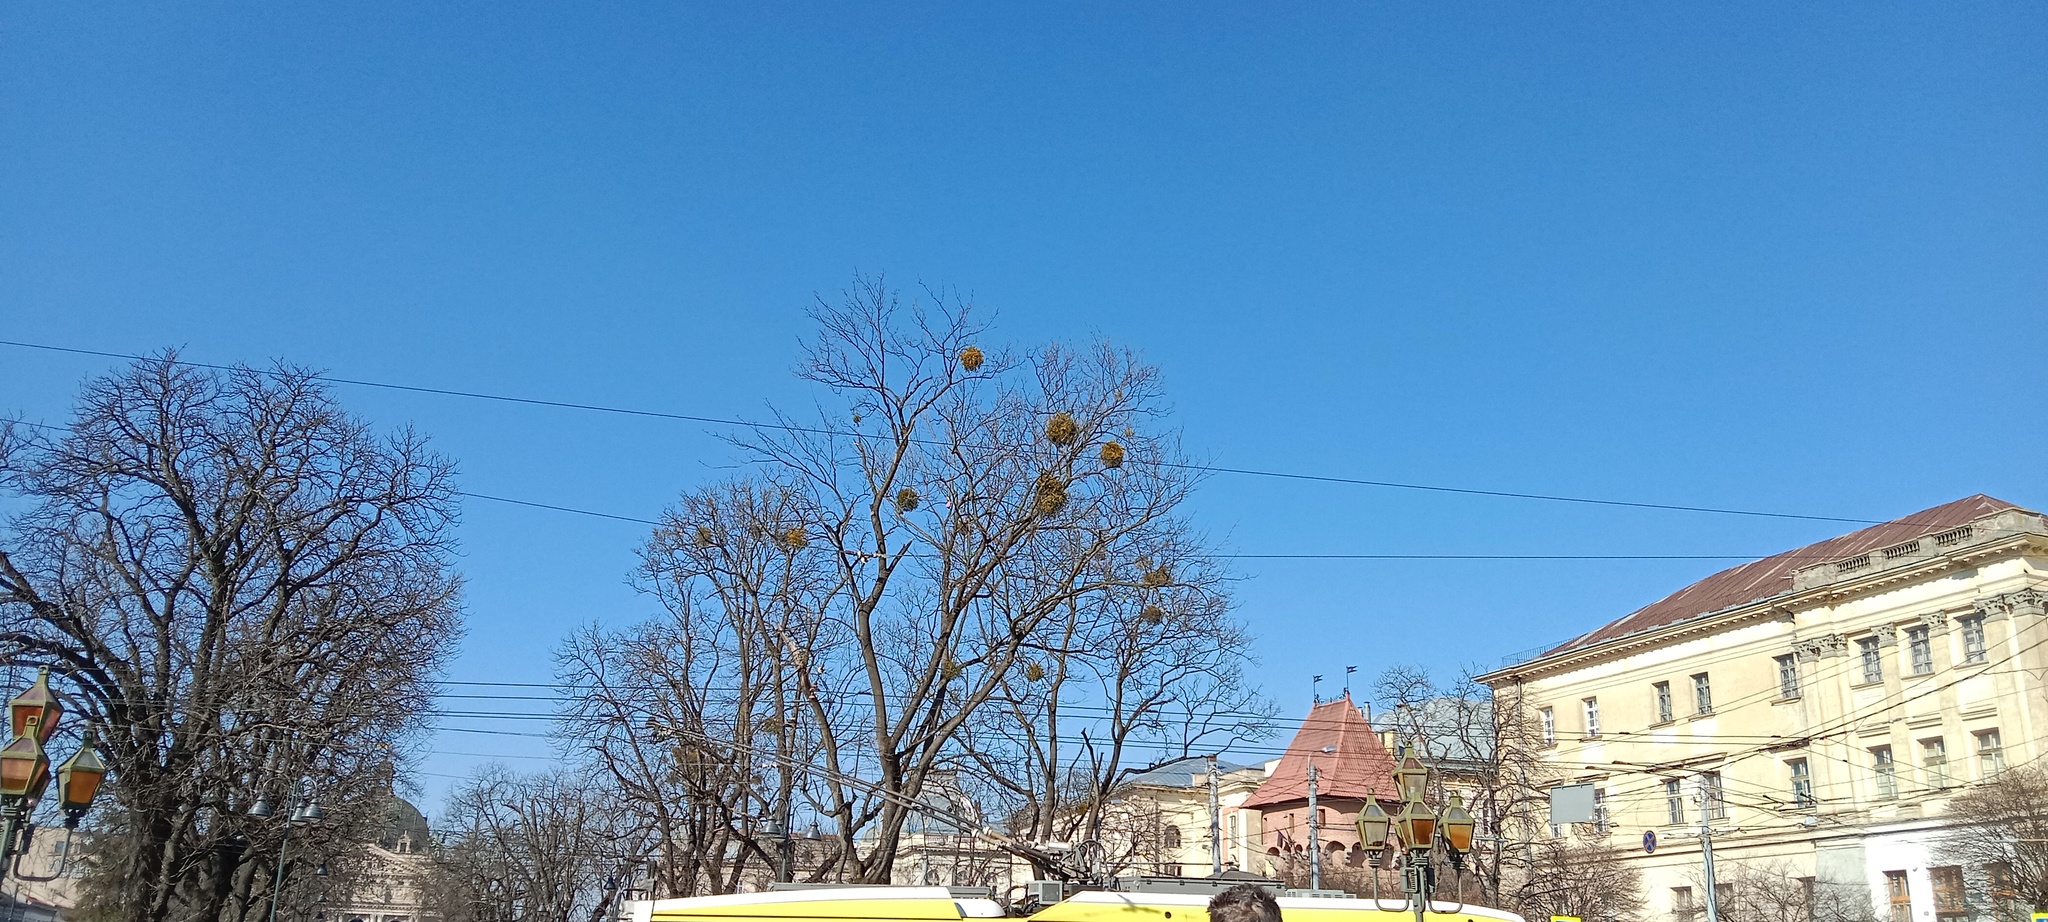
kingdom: Plantae
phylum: Tracheophyta
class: Magnoliopsida
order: Santalales
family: Viscaceae
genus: Viscum
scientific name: Viscum album
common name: Mistletoe
